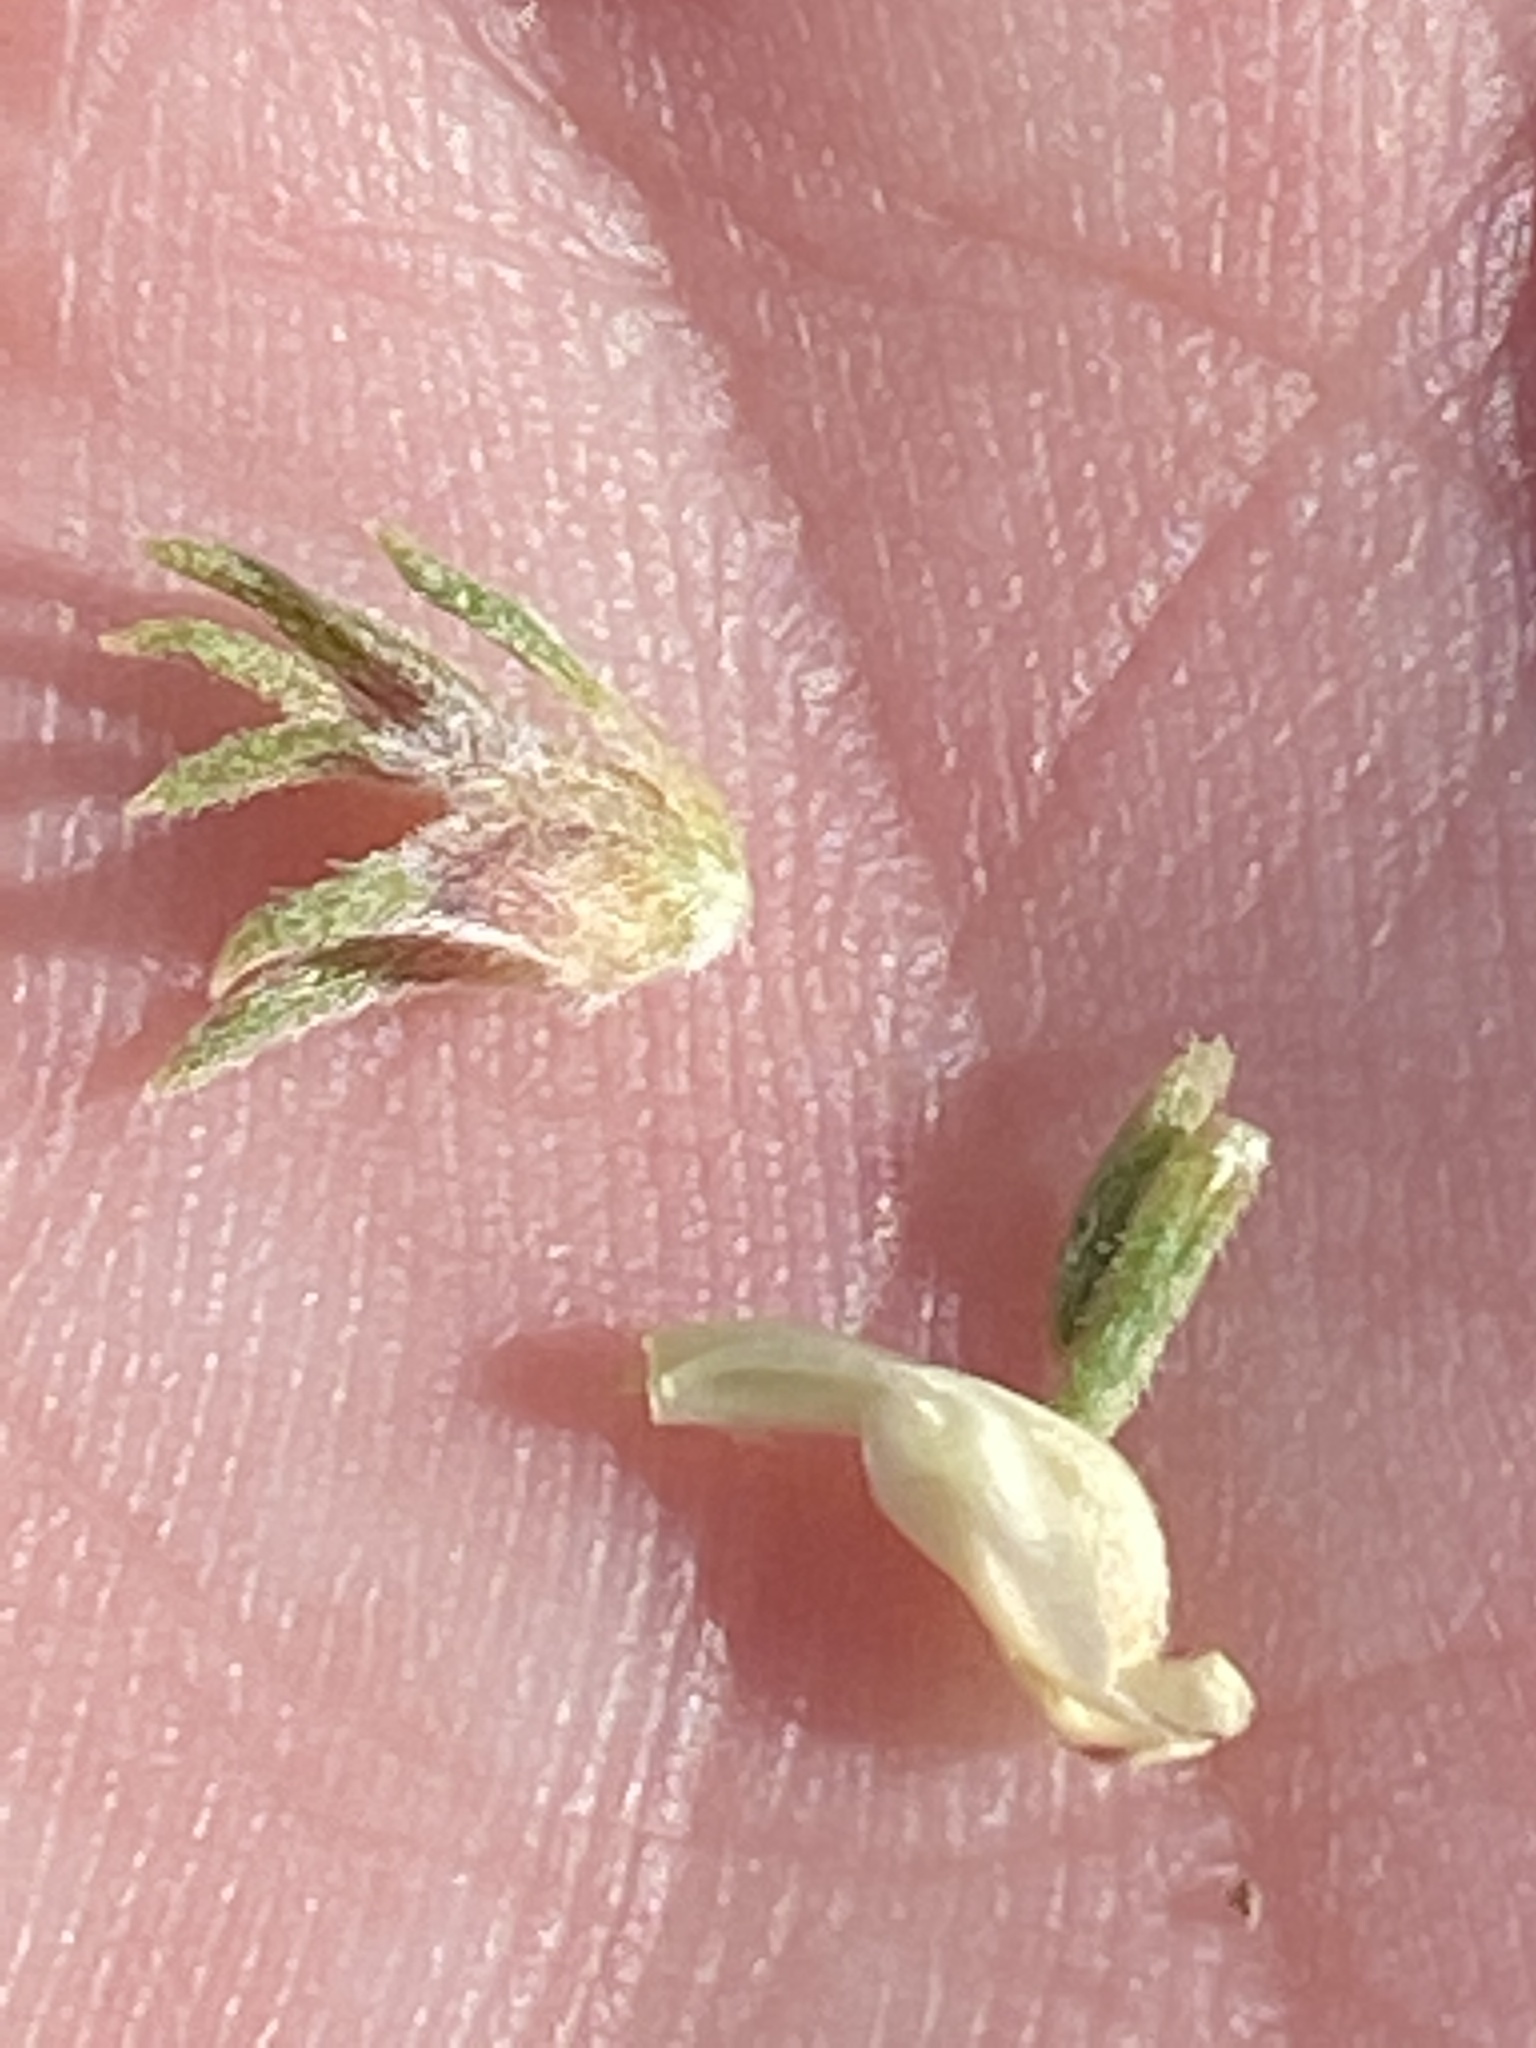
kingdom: Plantae
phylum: Tracheophyta
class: Magnoliopsida
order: Fabales
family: Fabaceae
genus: Aspalathus
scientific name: Aspalathus forbesii
